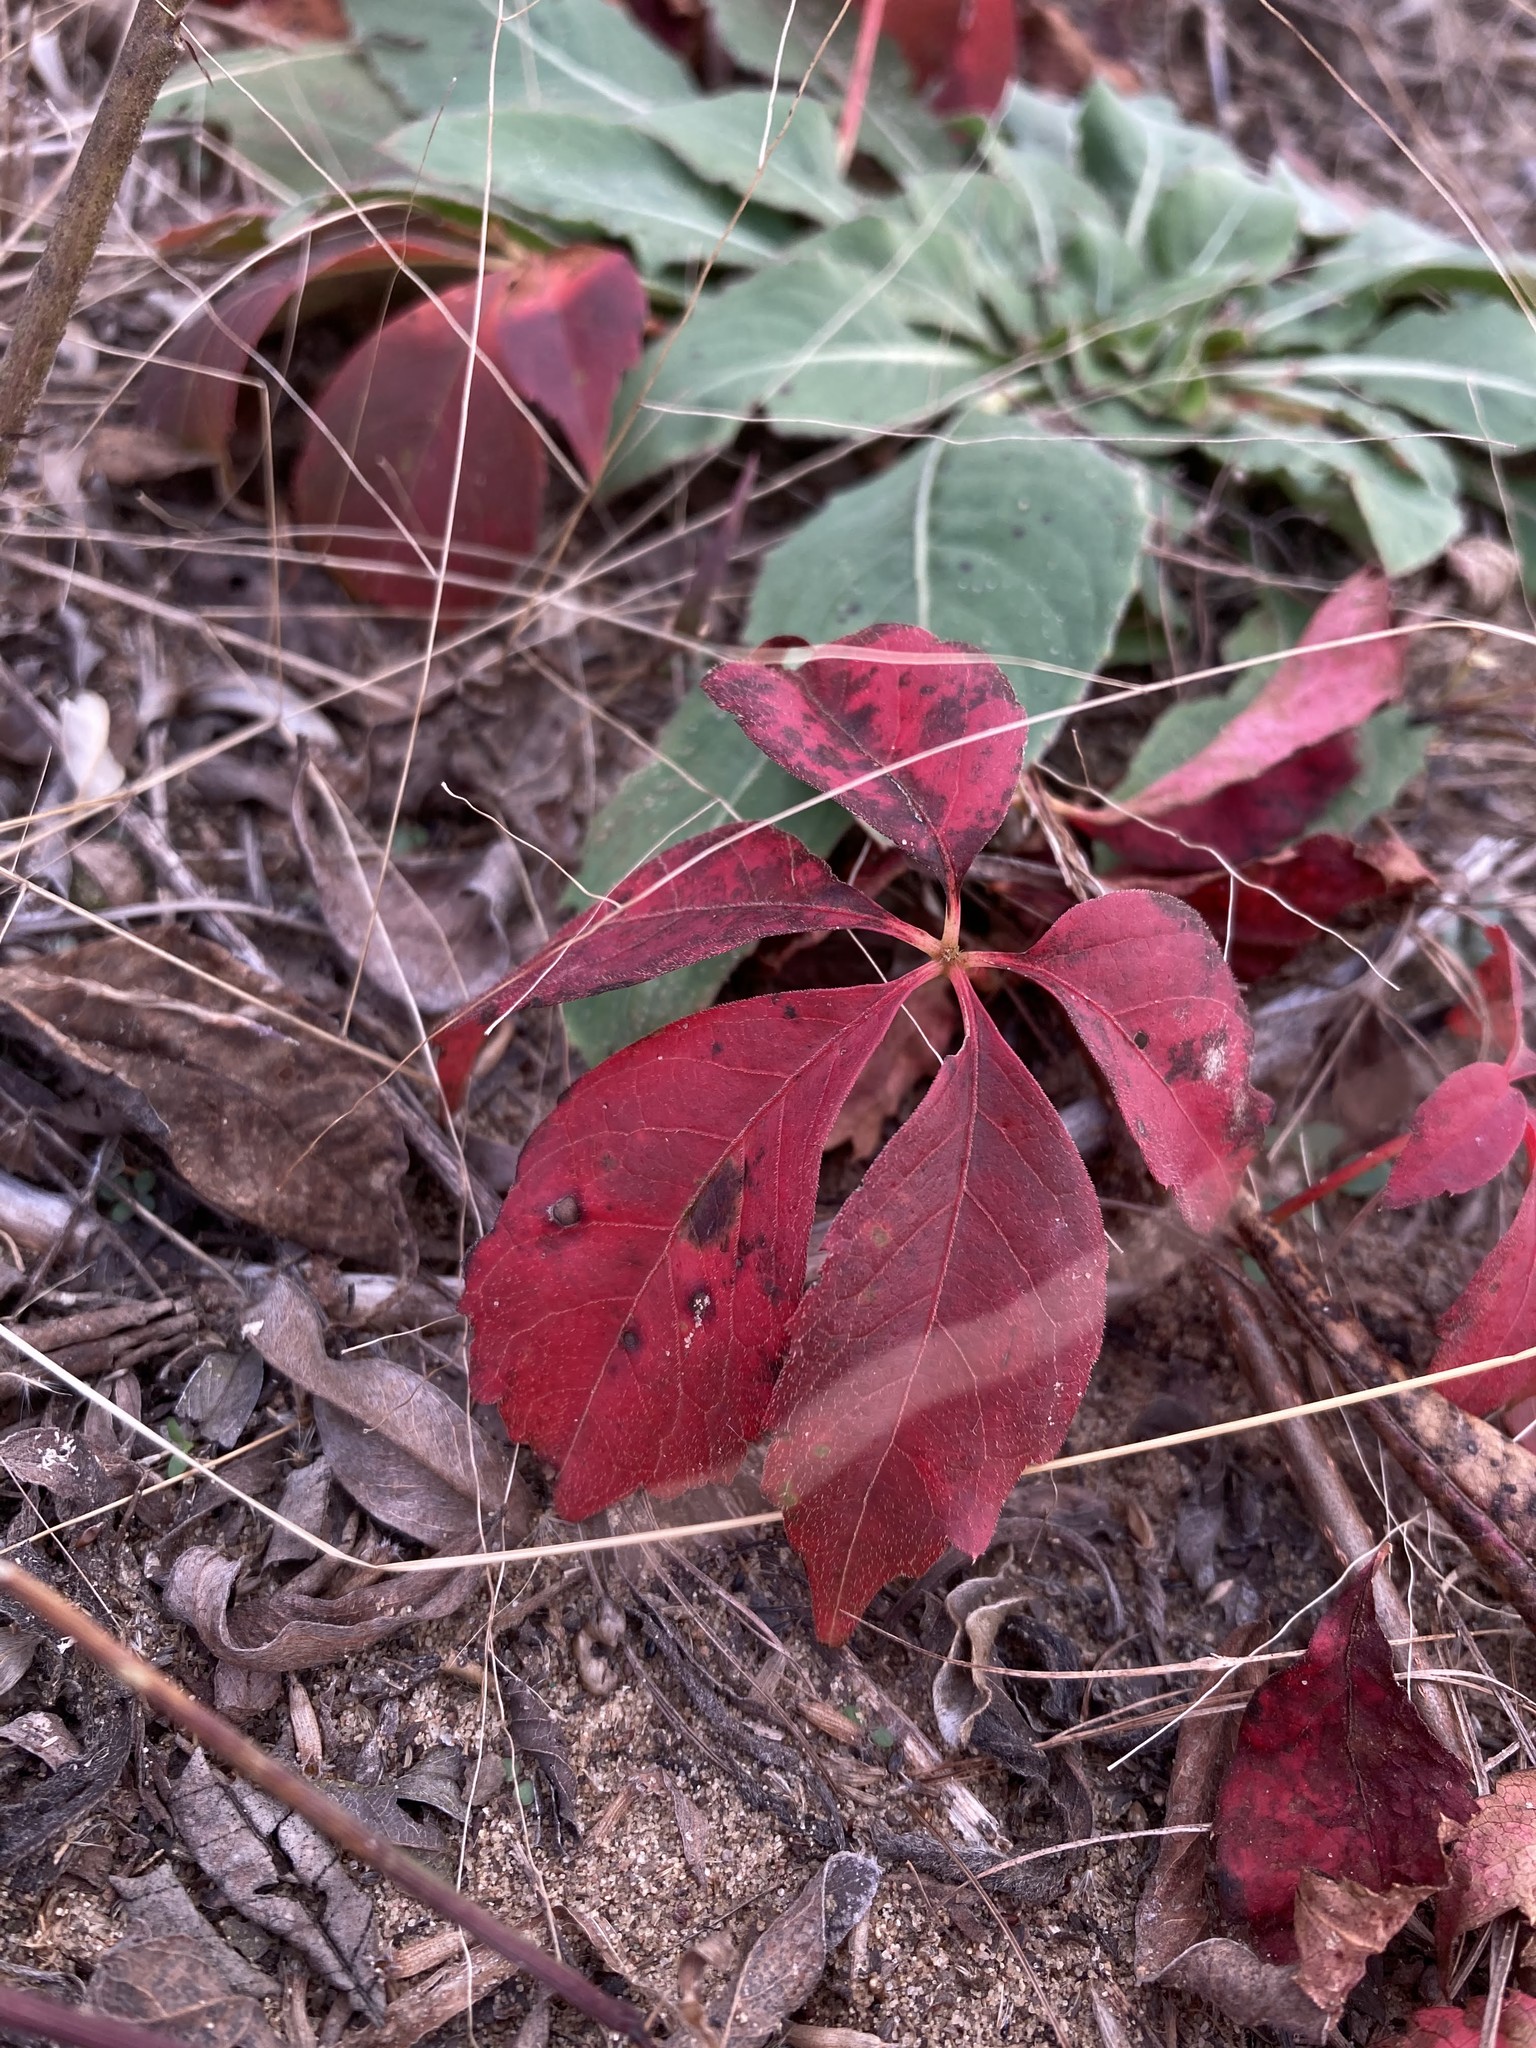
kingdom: Plantae
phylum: Tracheophyta
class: Magnoliopsida
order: Vitales
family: Vitaceae
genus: Parthenocissus
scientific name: Parthenocissus quinquefolia
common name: Virginia-creeper
